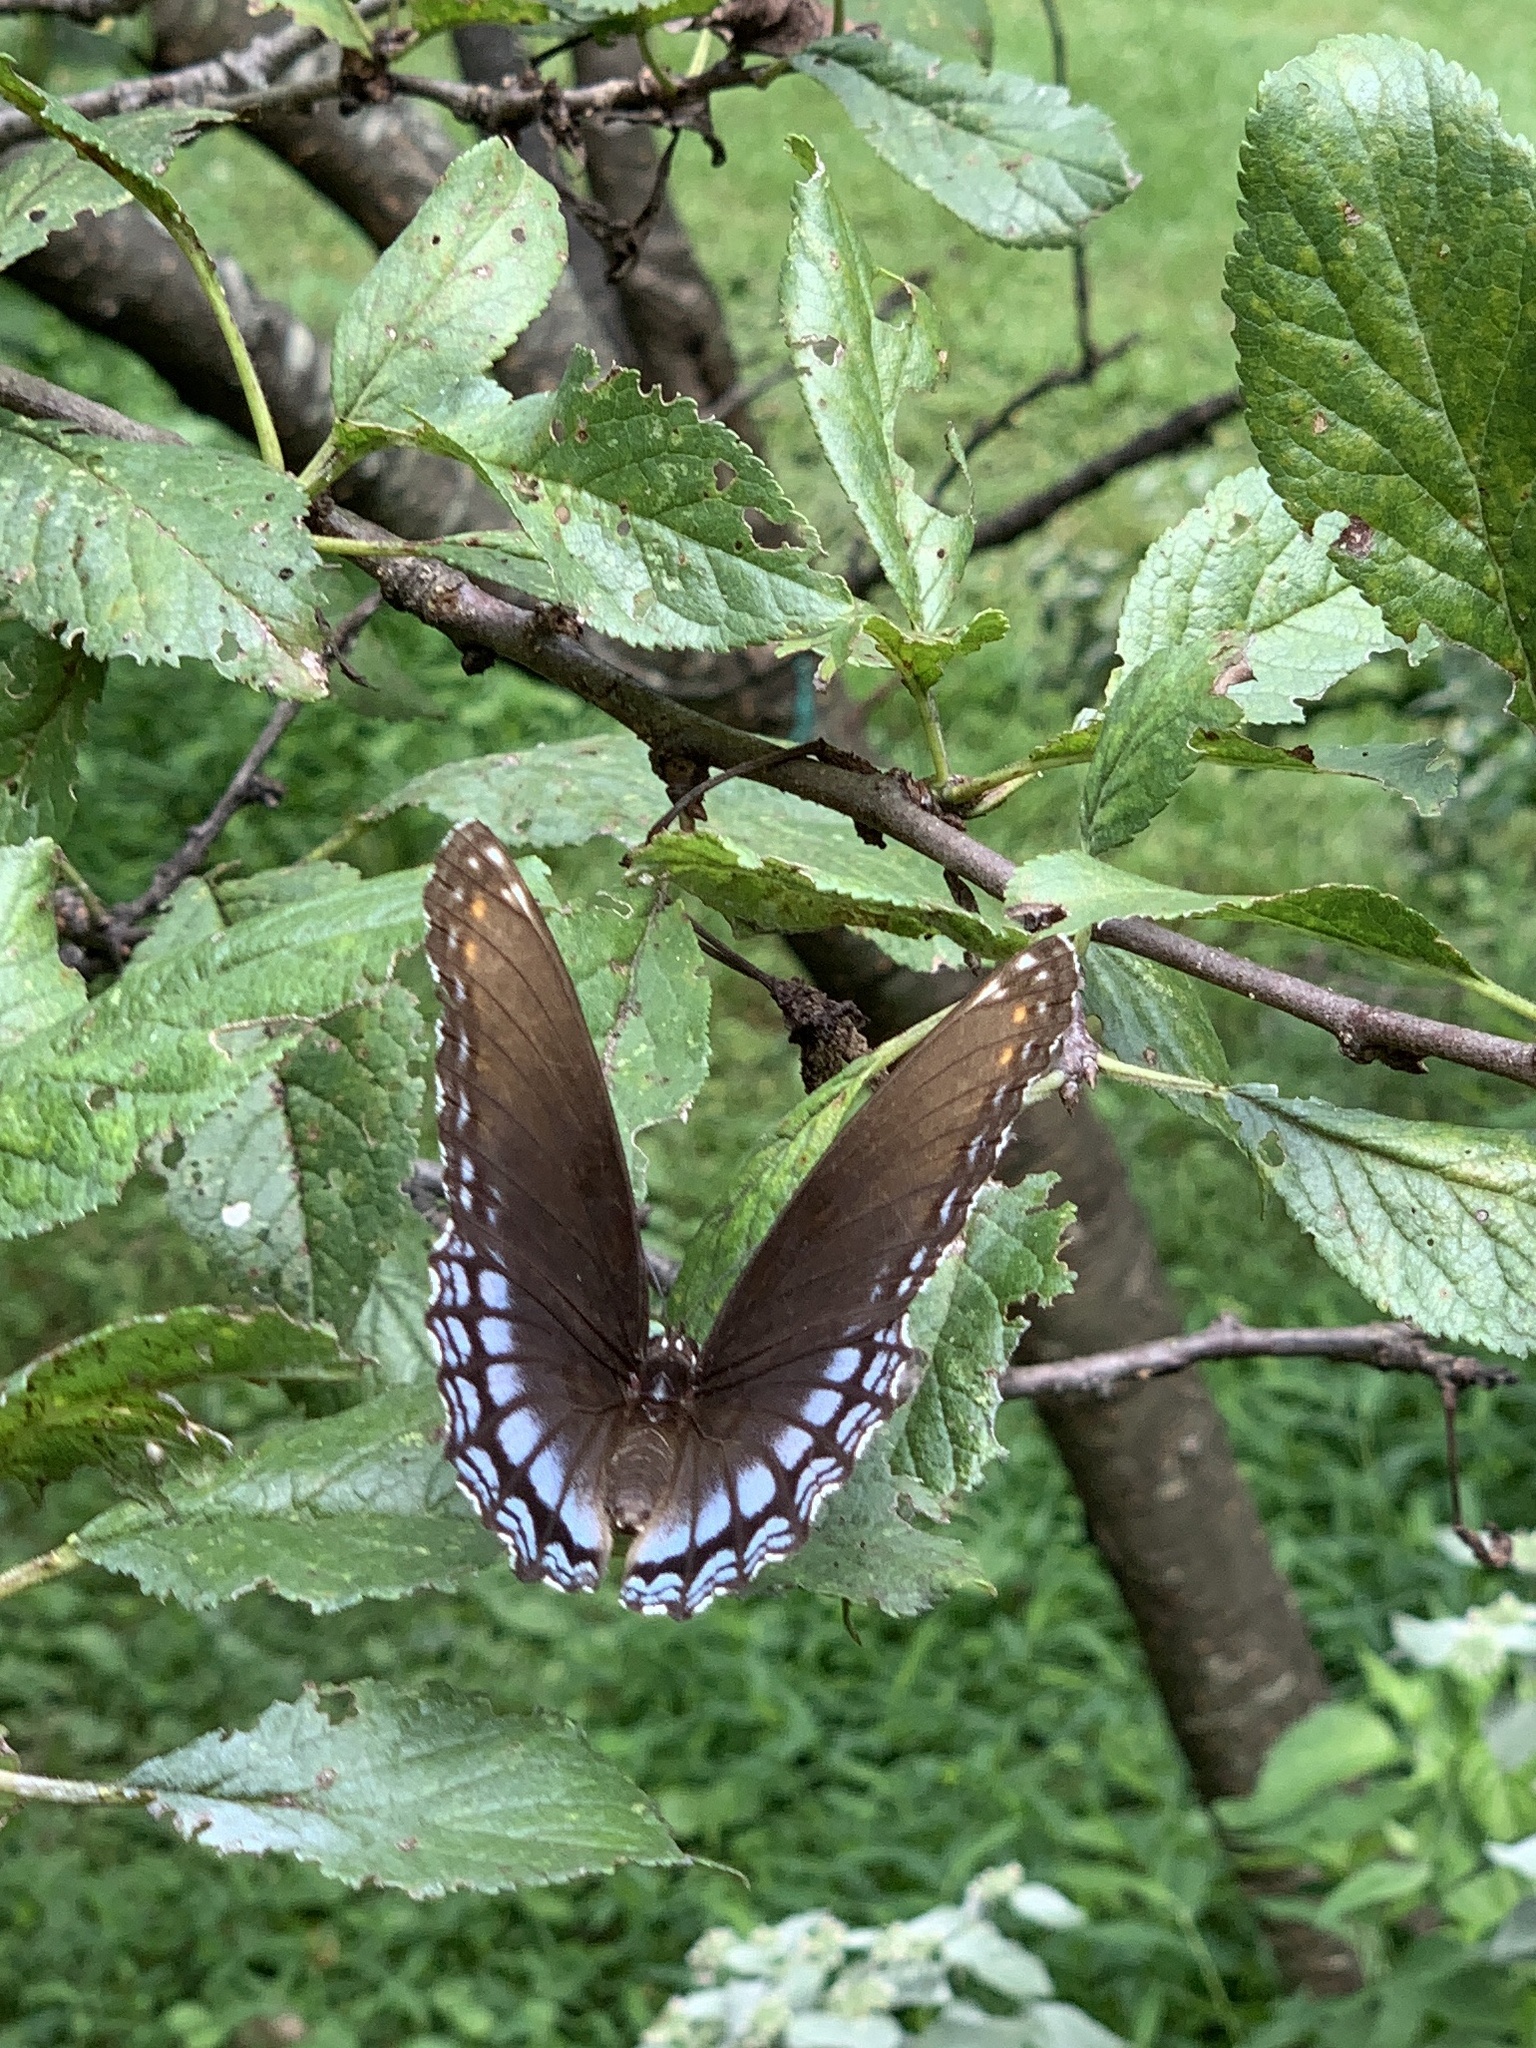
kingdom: Animalia
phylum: Arthropoda
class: Insecta
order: Lepidoptera
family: Nymphalidae
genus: Limenitis
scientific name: Limenitis astyanax
